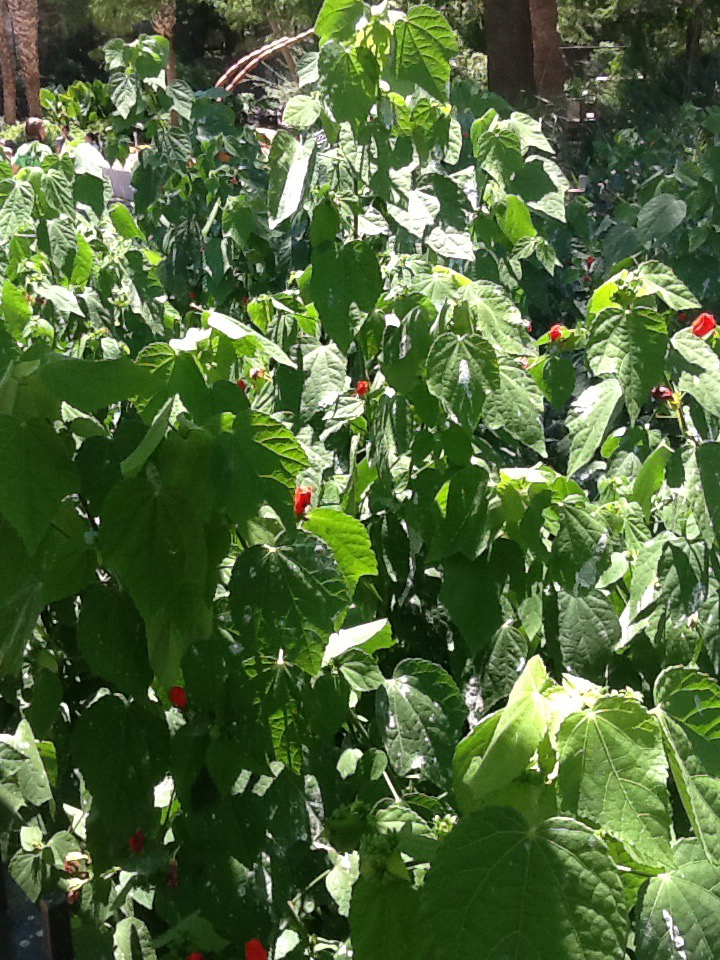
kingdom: Plantae
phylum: Tracheophyta
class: Magnoliopsida
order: Malvales
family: Malvaceae
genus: Malvaviscus
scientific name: Malvaviscus arboreus
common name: Wax mallow
